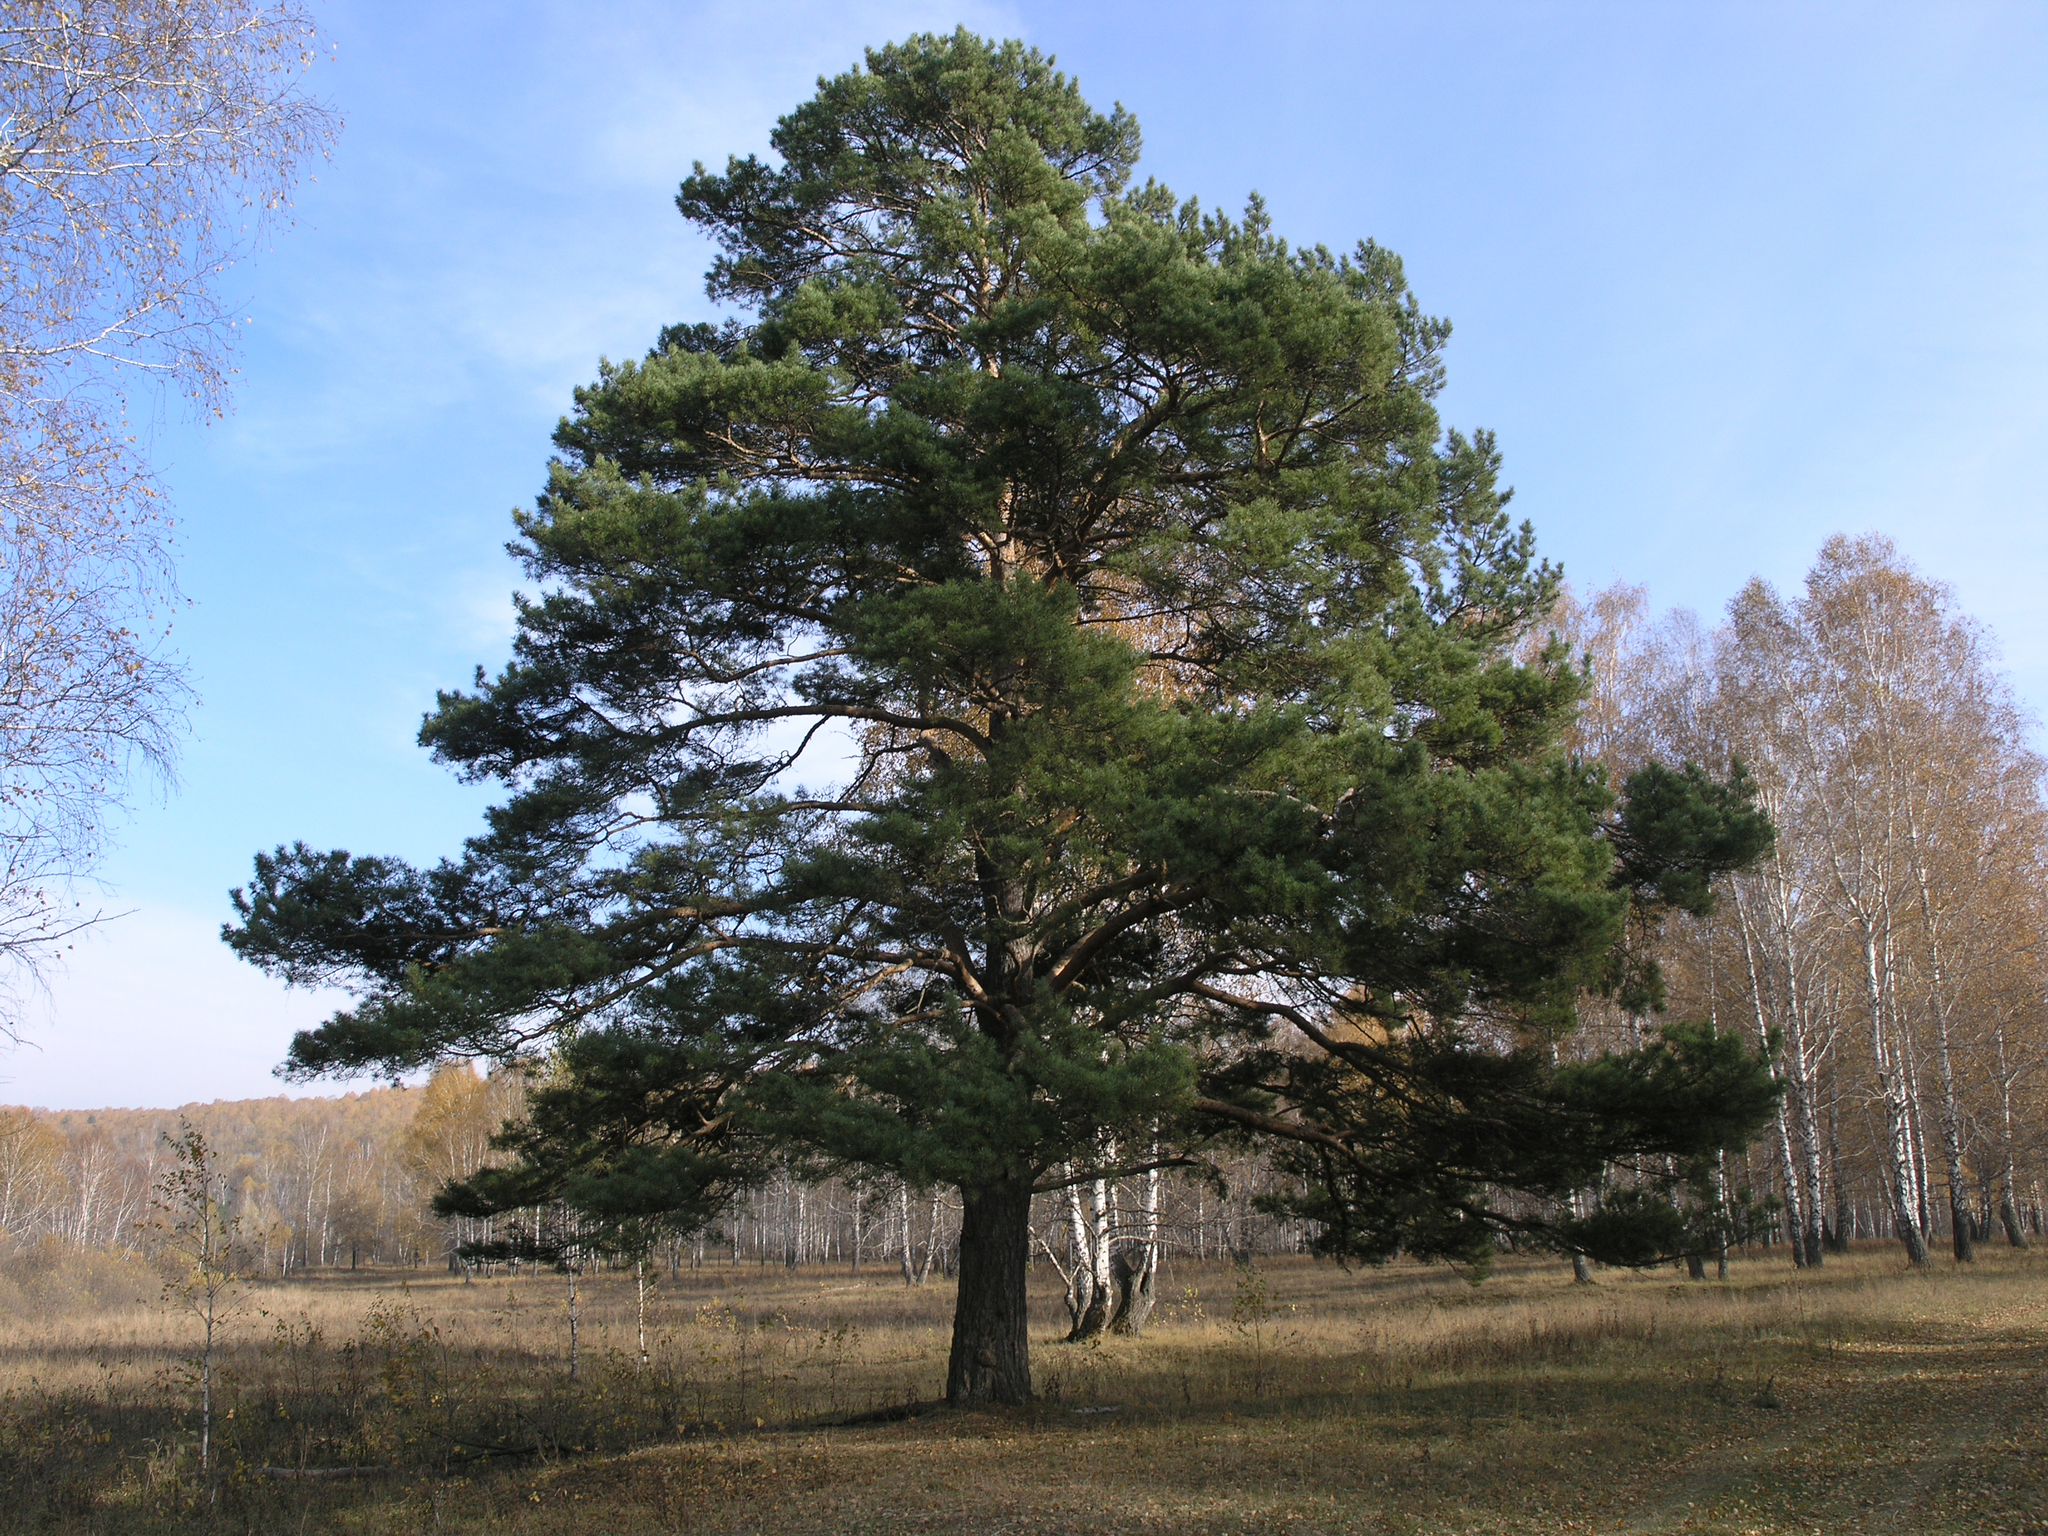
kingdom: Plantae
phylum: Tracheophyta
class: Pinopsida
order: Pinales
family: Pinaceae
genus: Pinus
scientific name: Pinus sylvestris
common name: Scots pine
